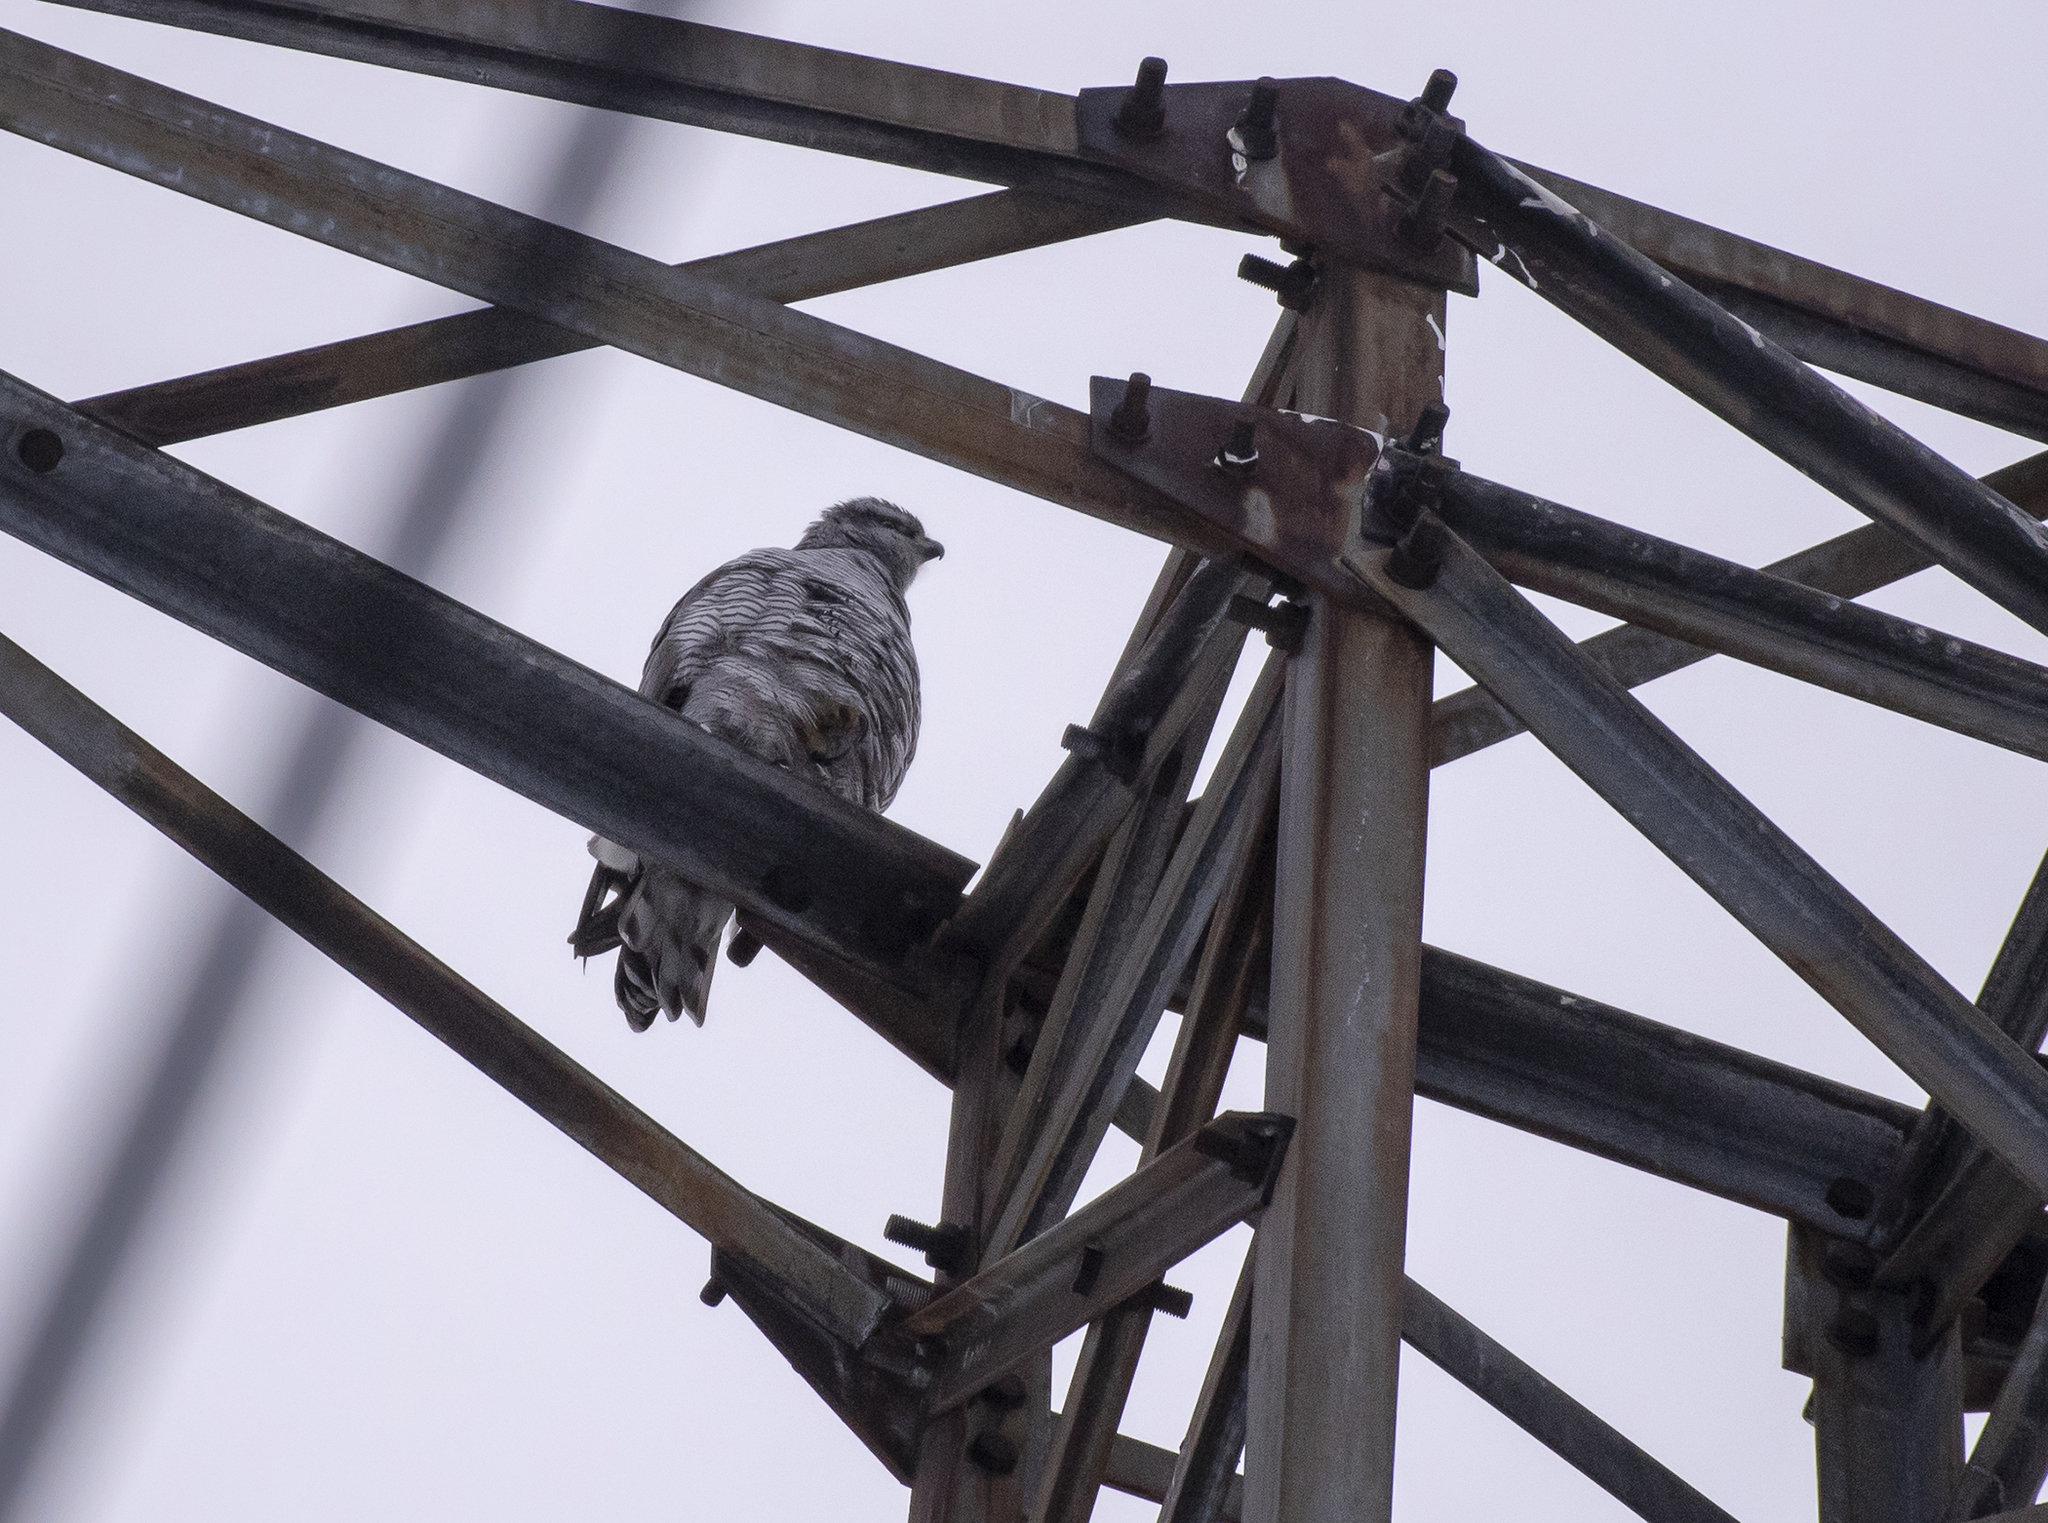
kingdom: Animalia
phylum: Chordata
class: Aves
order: Accipitriformes
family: Accipitridae
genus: Accipiter
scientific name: Accipiter gentilis
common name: Northern goshawk
